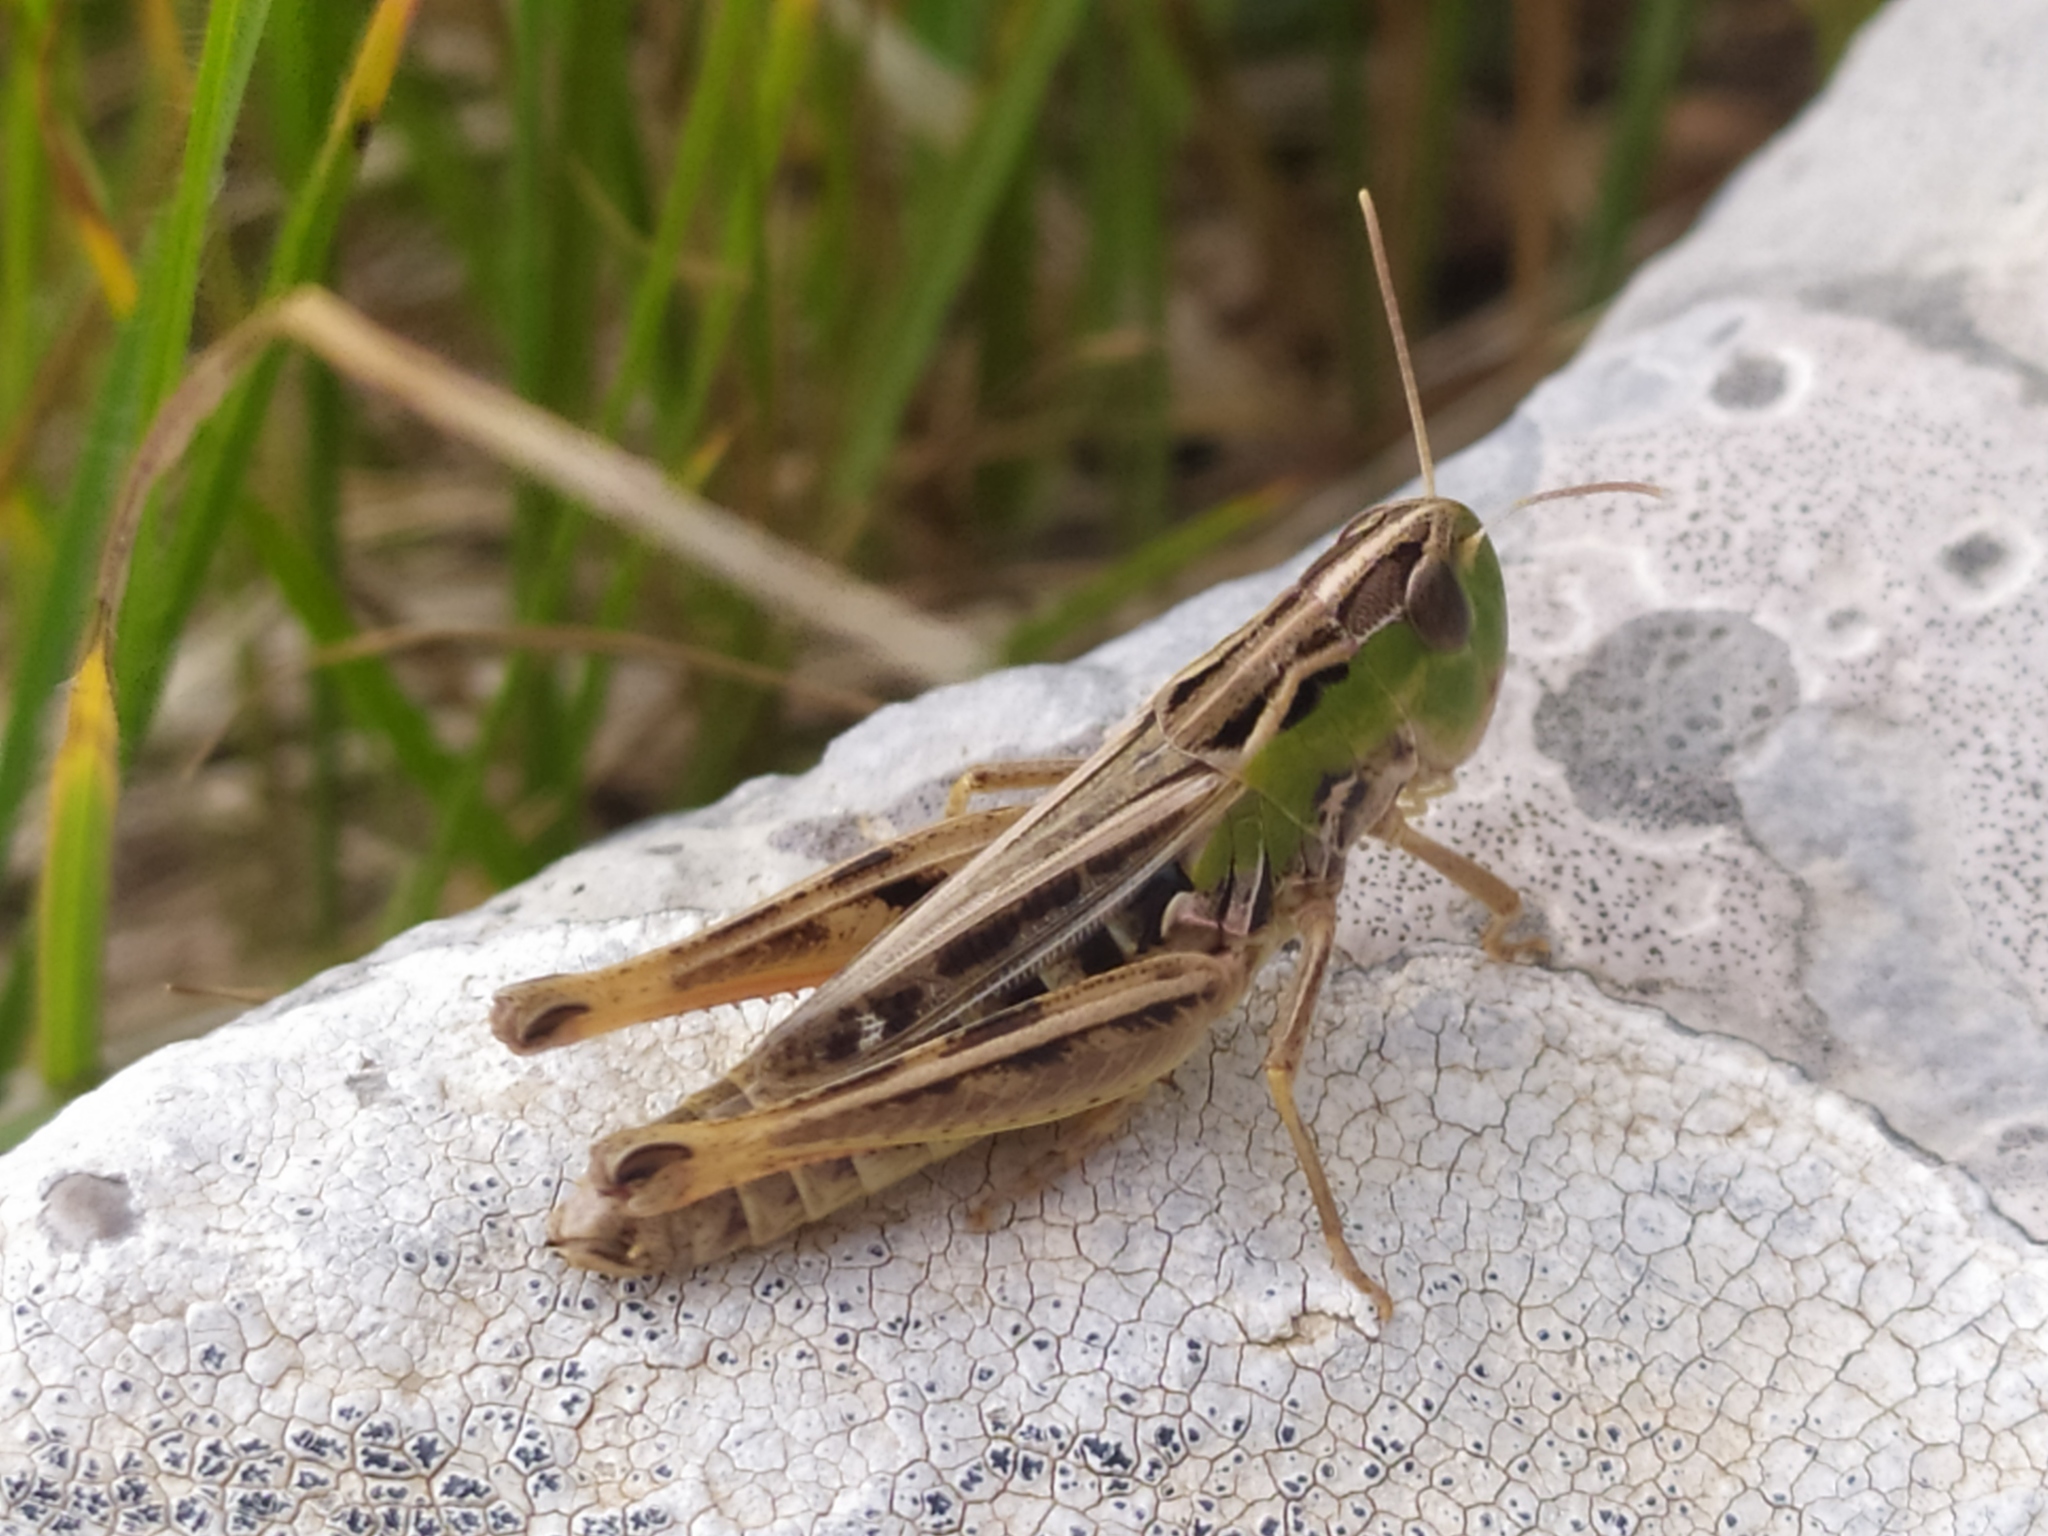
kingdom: Animalia
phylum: Arthropoda
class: Insecta
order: Orthoptera
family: Acrididae
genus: Stenobothrus
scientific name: Stenobothrus nigromaculatus
